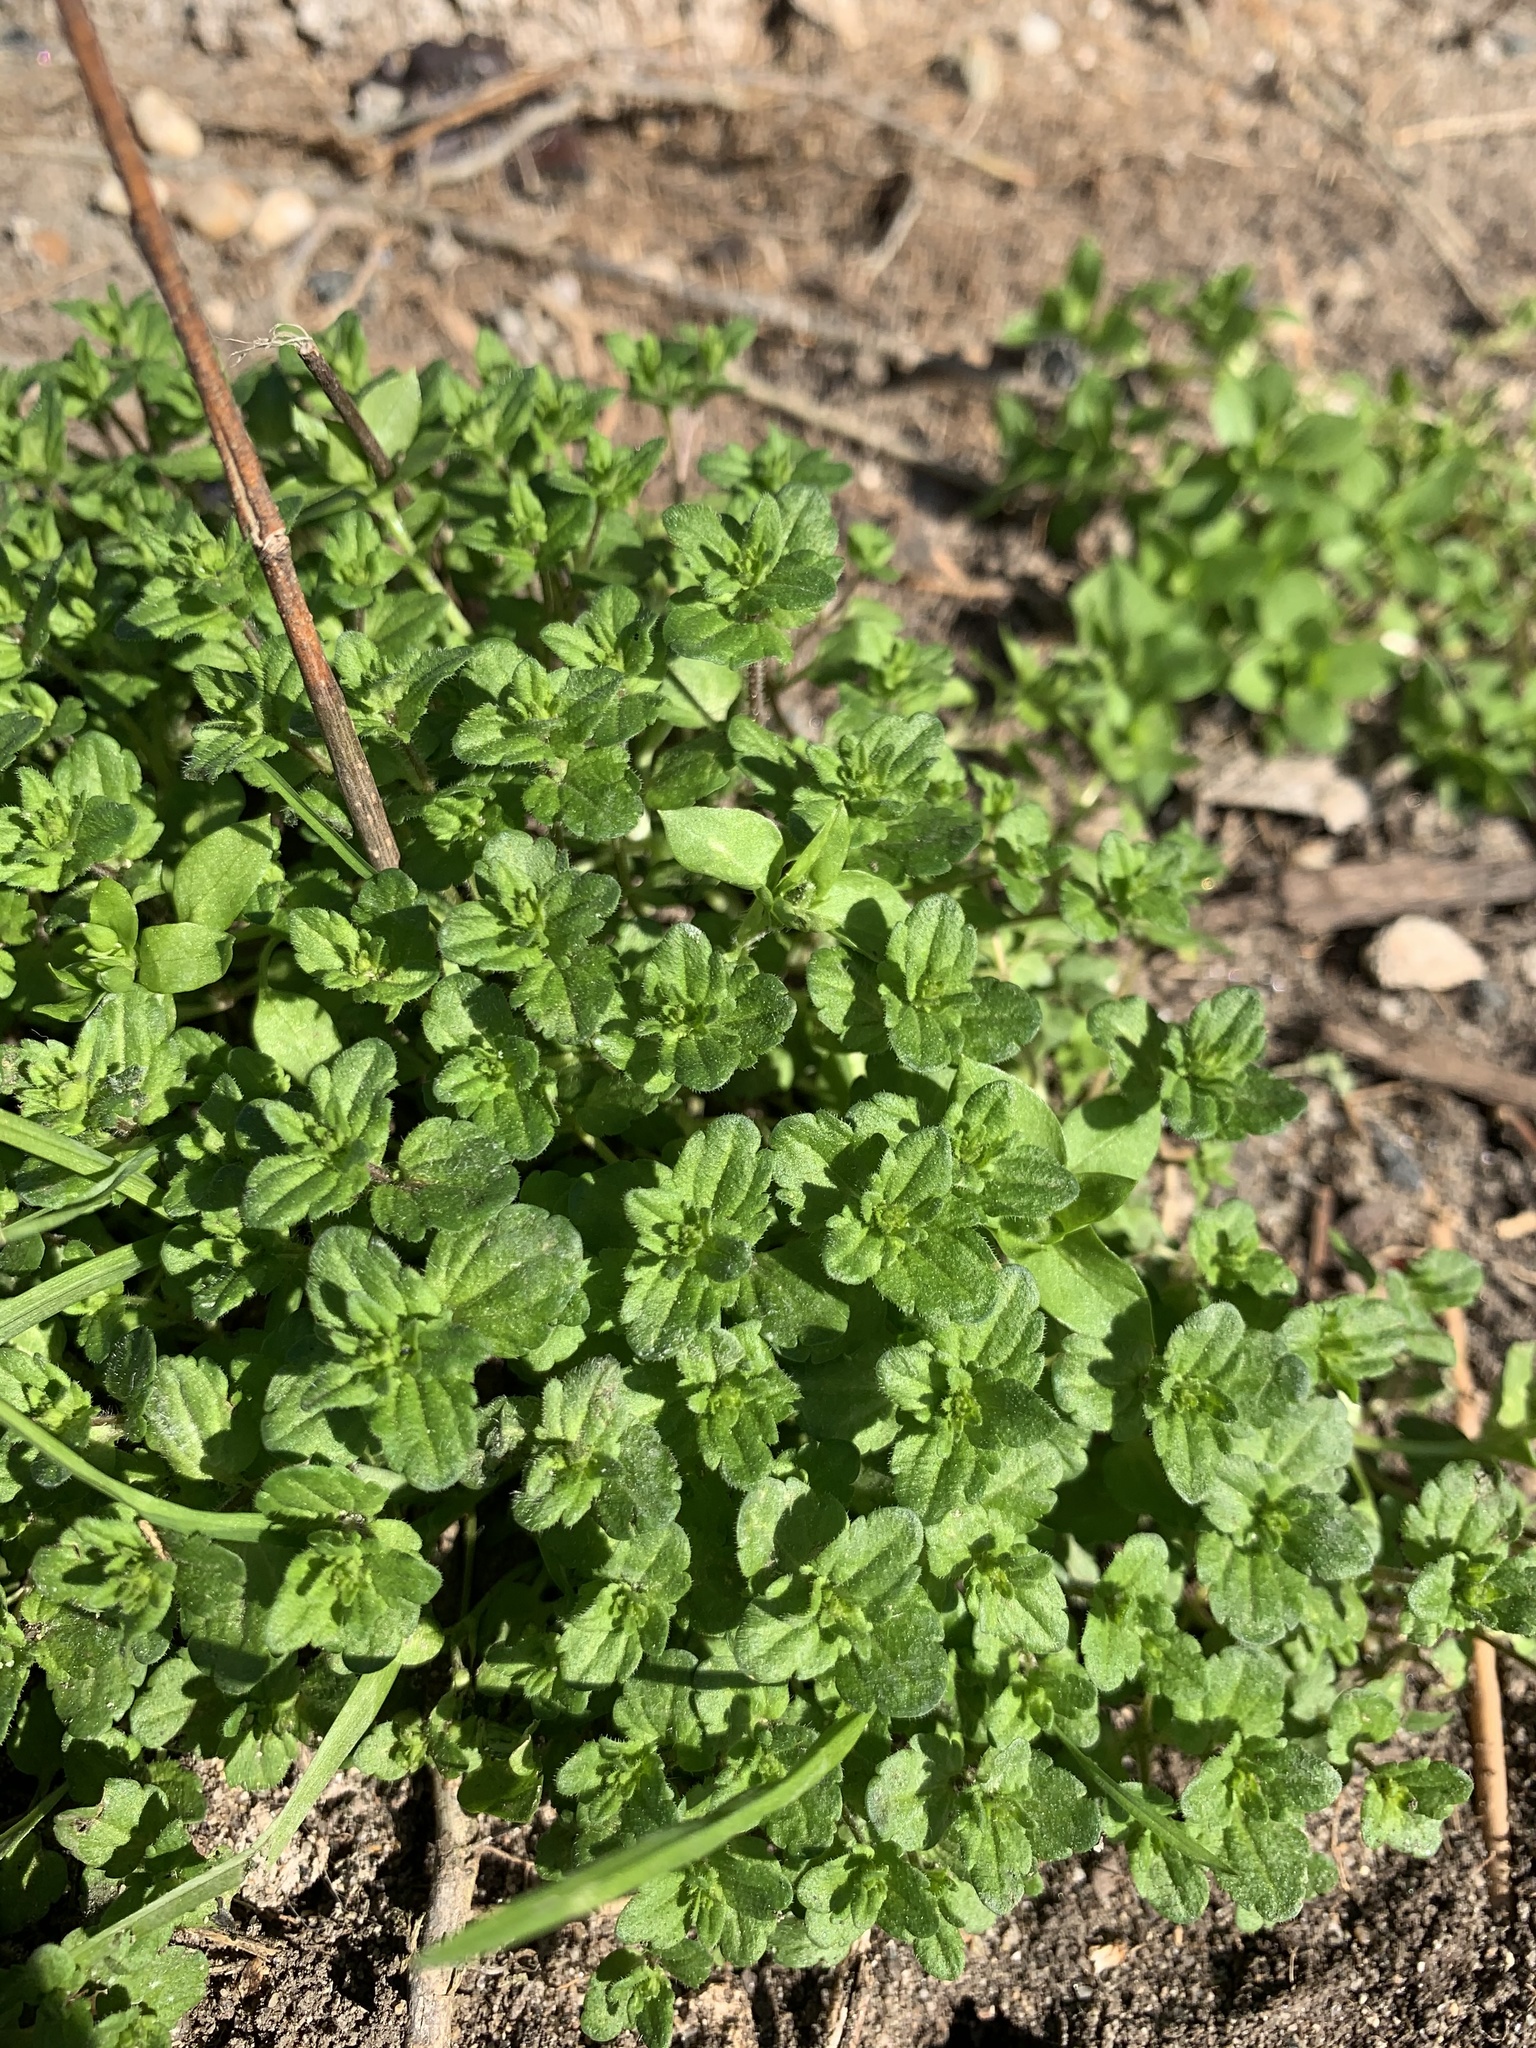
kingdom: Plantae
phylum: Tracheophyta
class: Magnoliopsida
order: Lamiales
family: Plantaginaceae
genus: Veronica
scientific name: Veronica arvensis
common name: Corn speedwell
